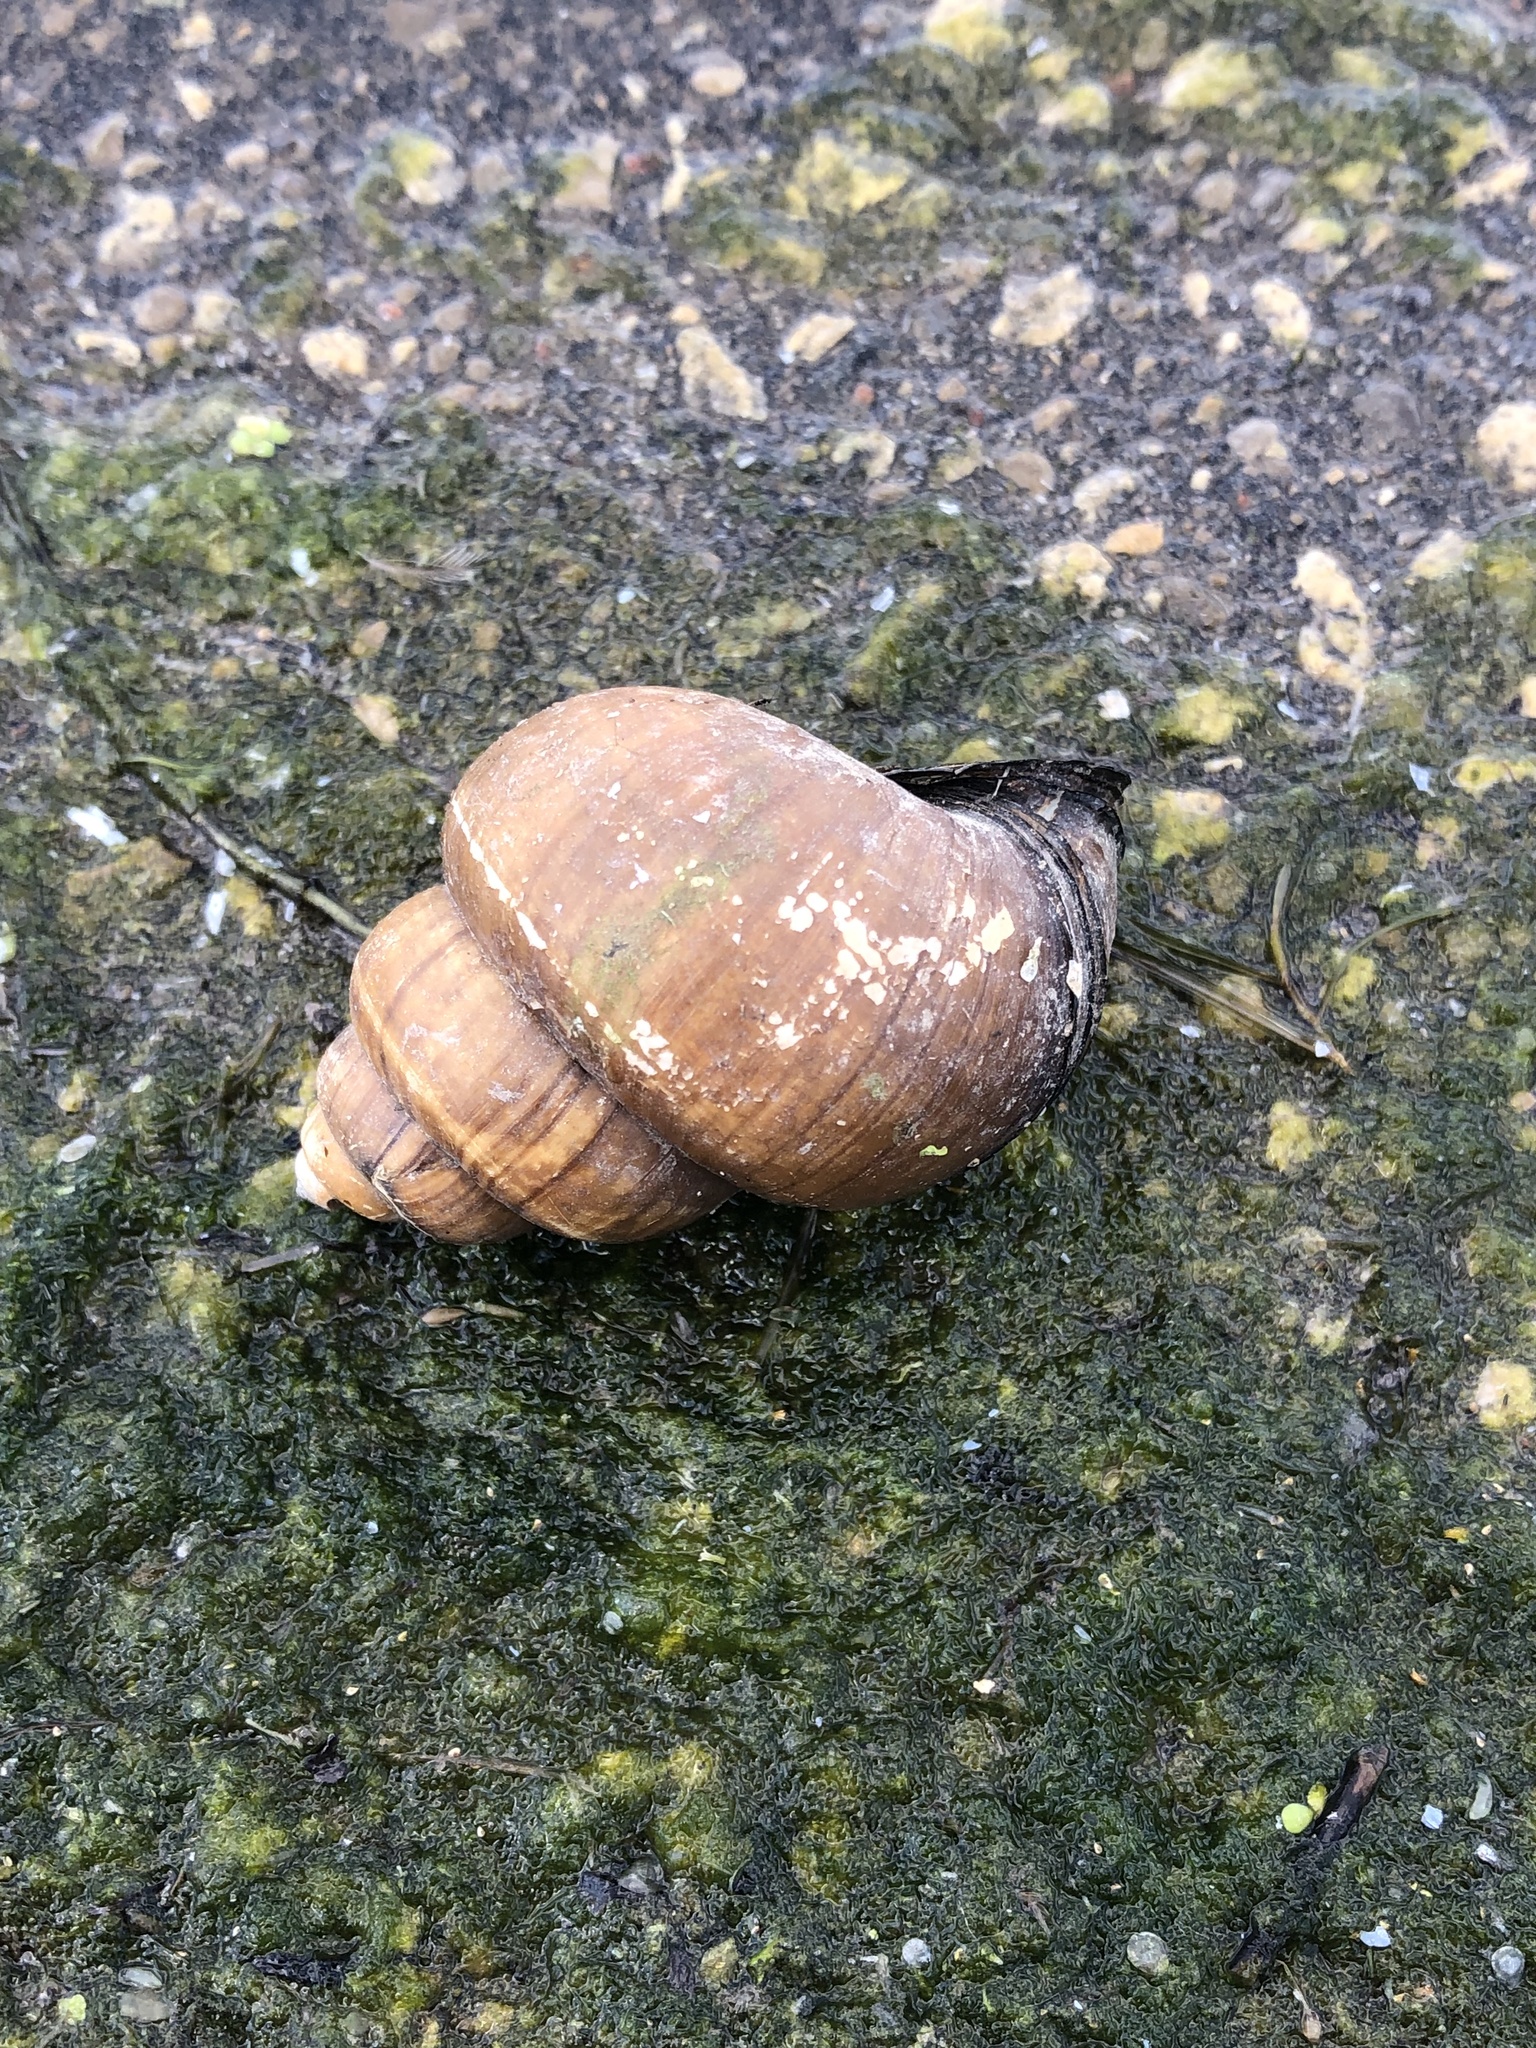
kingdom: Animalia
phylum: Mollusca
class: Gastropoda
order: Architaenioglossa
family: Viviparidae
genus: Cipangopaludina
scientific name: Cipangopaludina chinensis
